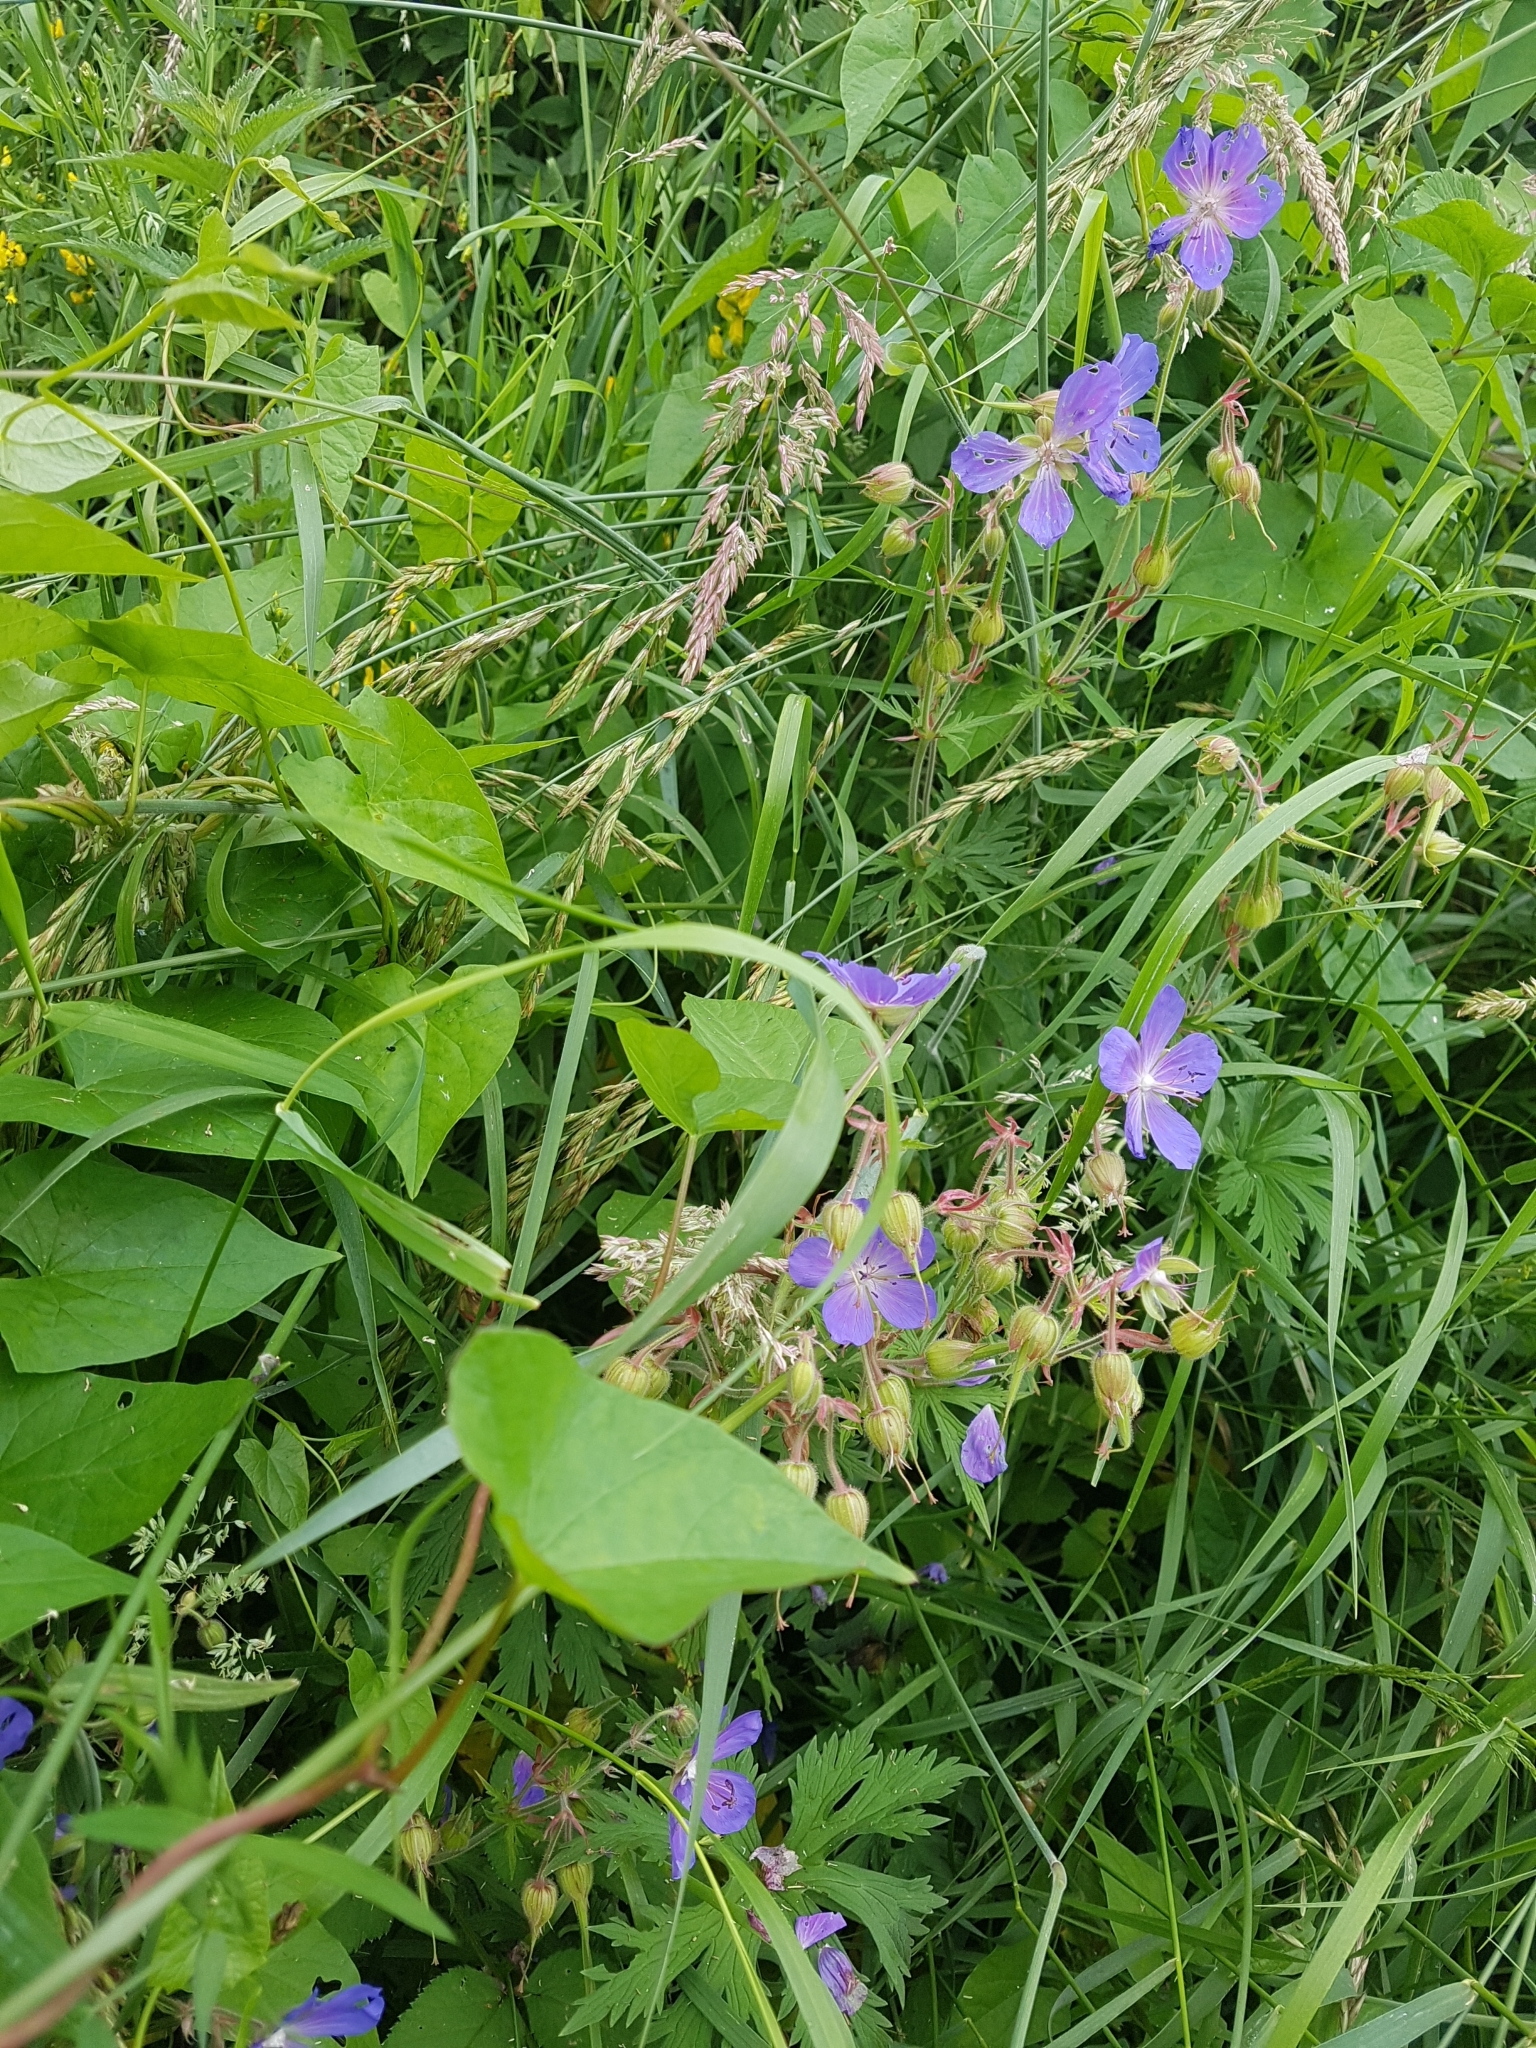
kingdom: Plantae
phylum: Tracheophyta
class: Magnoliopsida
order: Geraniales
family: Geraniaceae
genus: Geranium
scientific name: Geranium pratense
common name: Meadow crane's-bill
